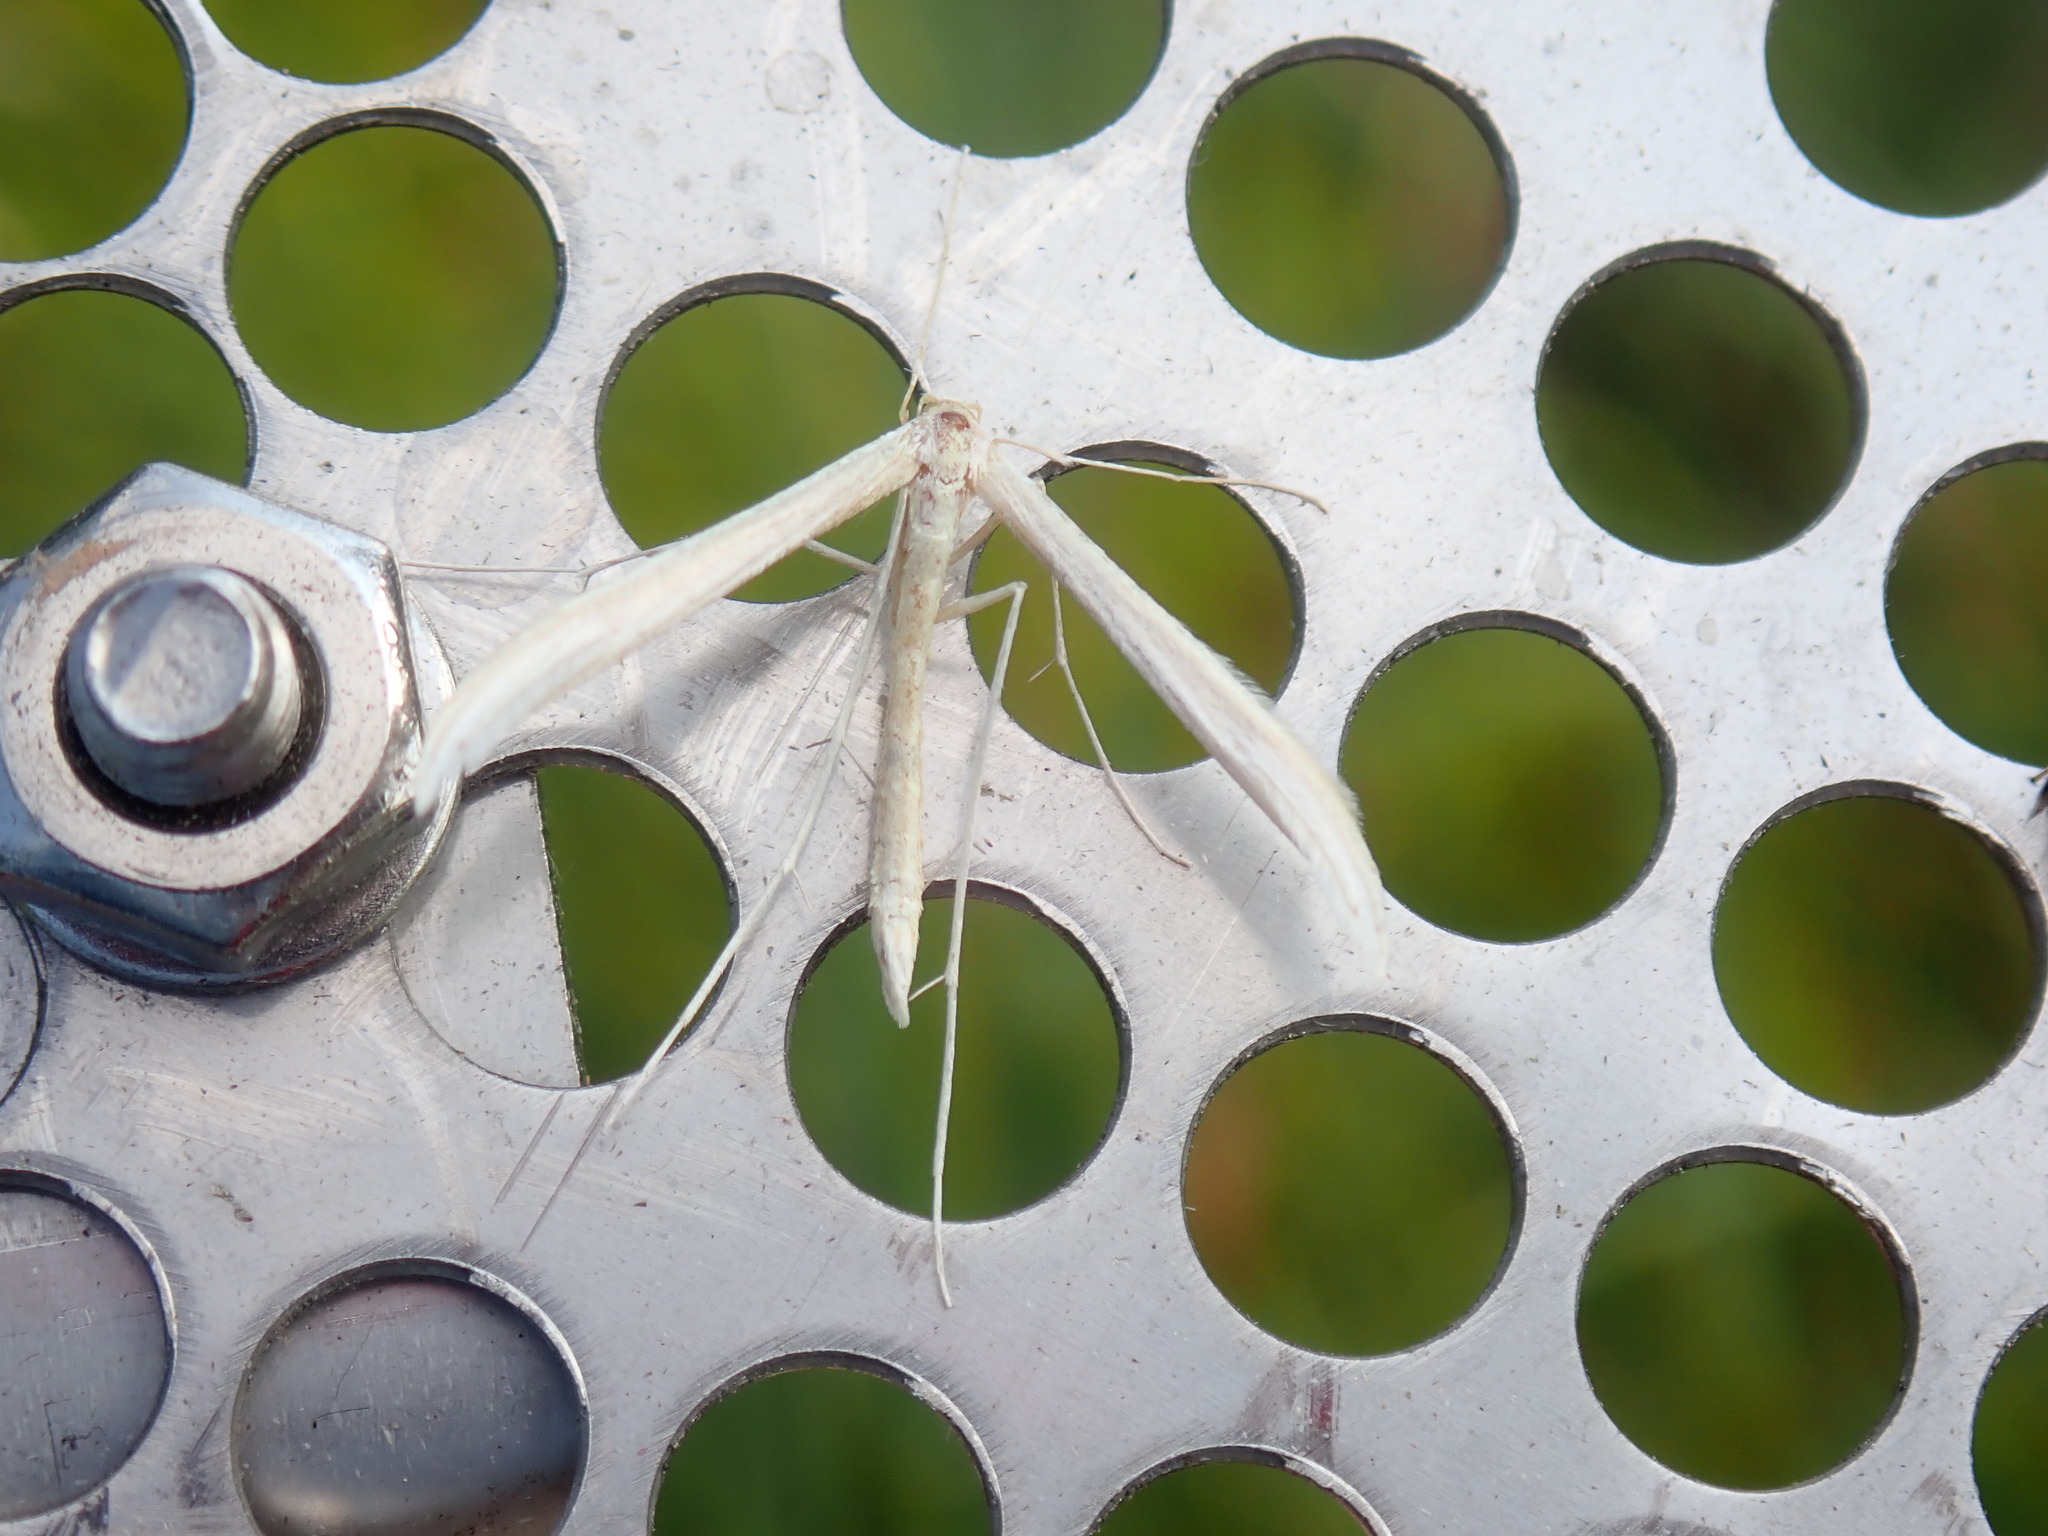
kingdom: Animalia
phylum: Arthropoda
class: Insecta
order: Lepidoptera
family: Pterophoridae
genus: Hellinsia
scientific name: Hellinsia
